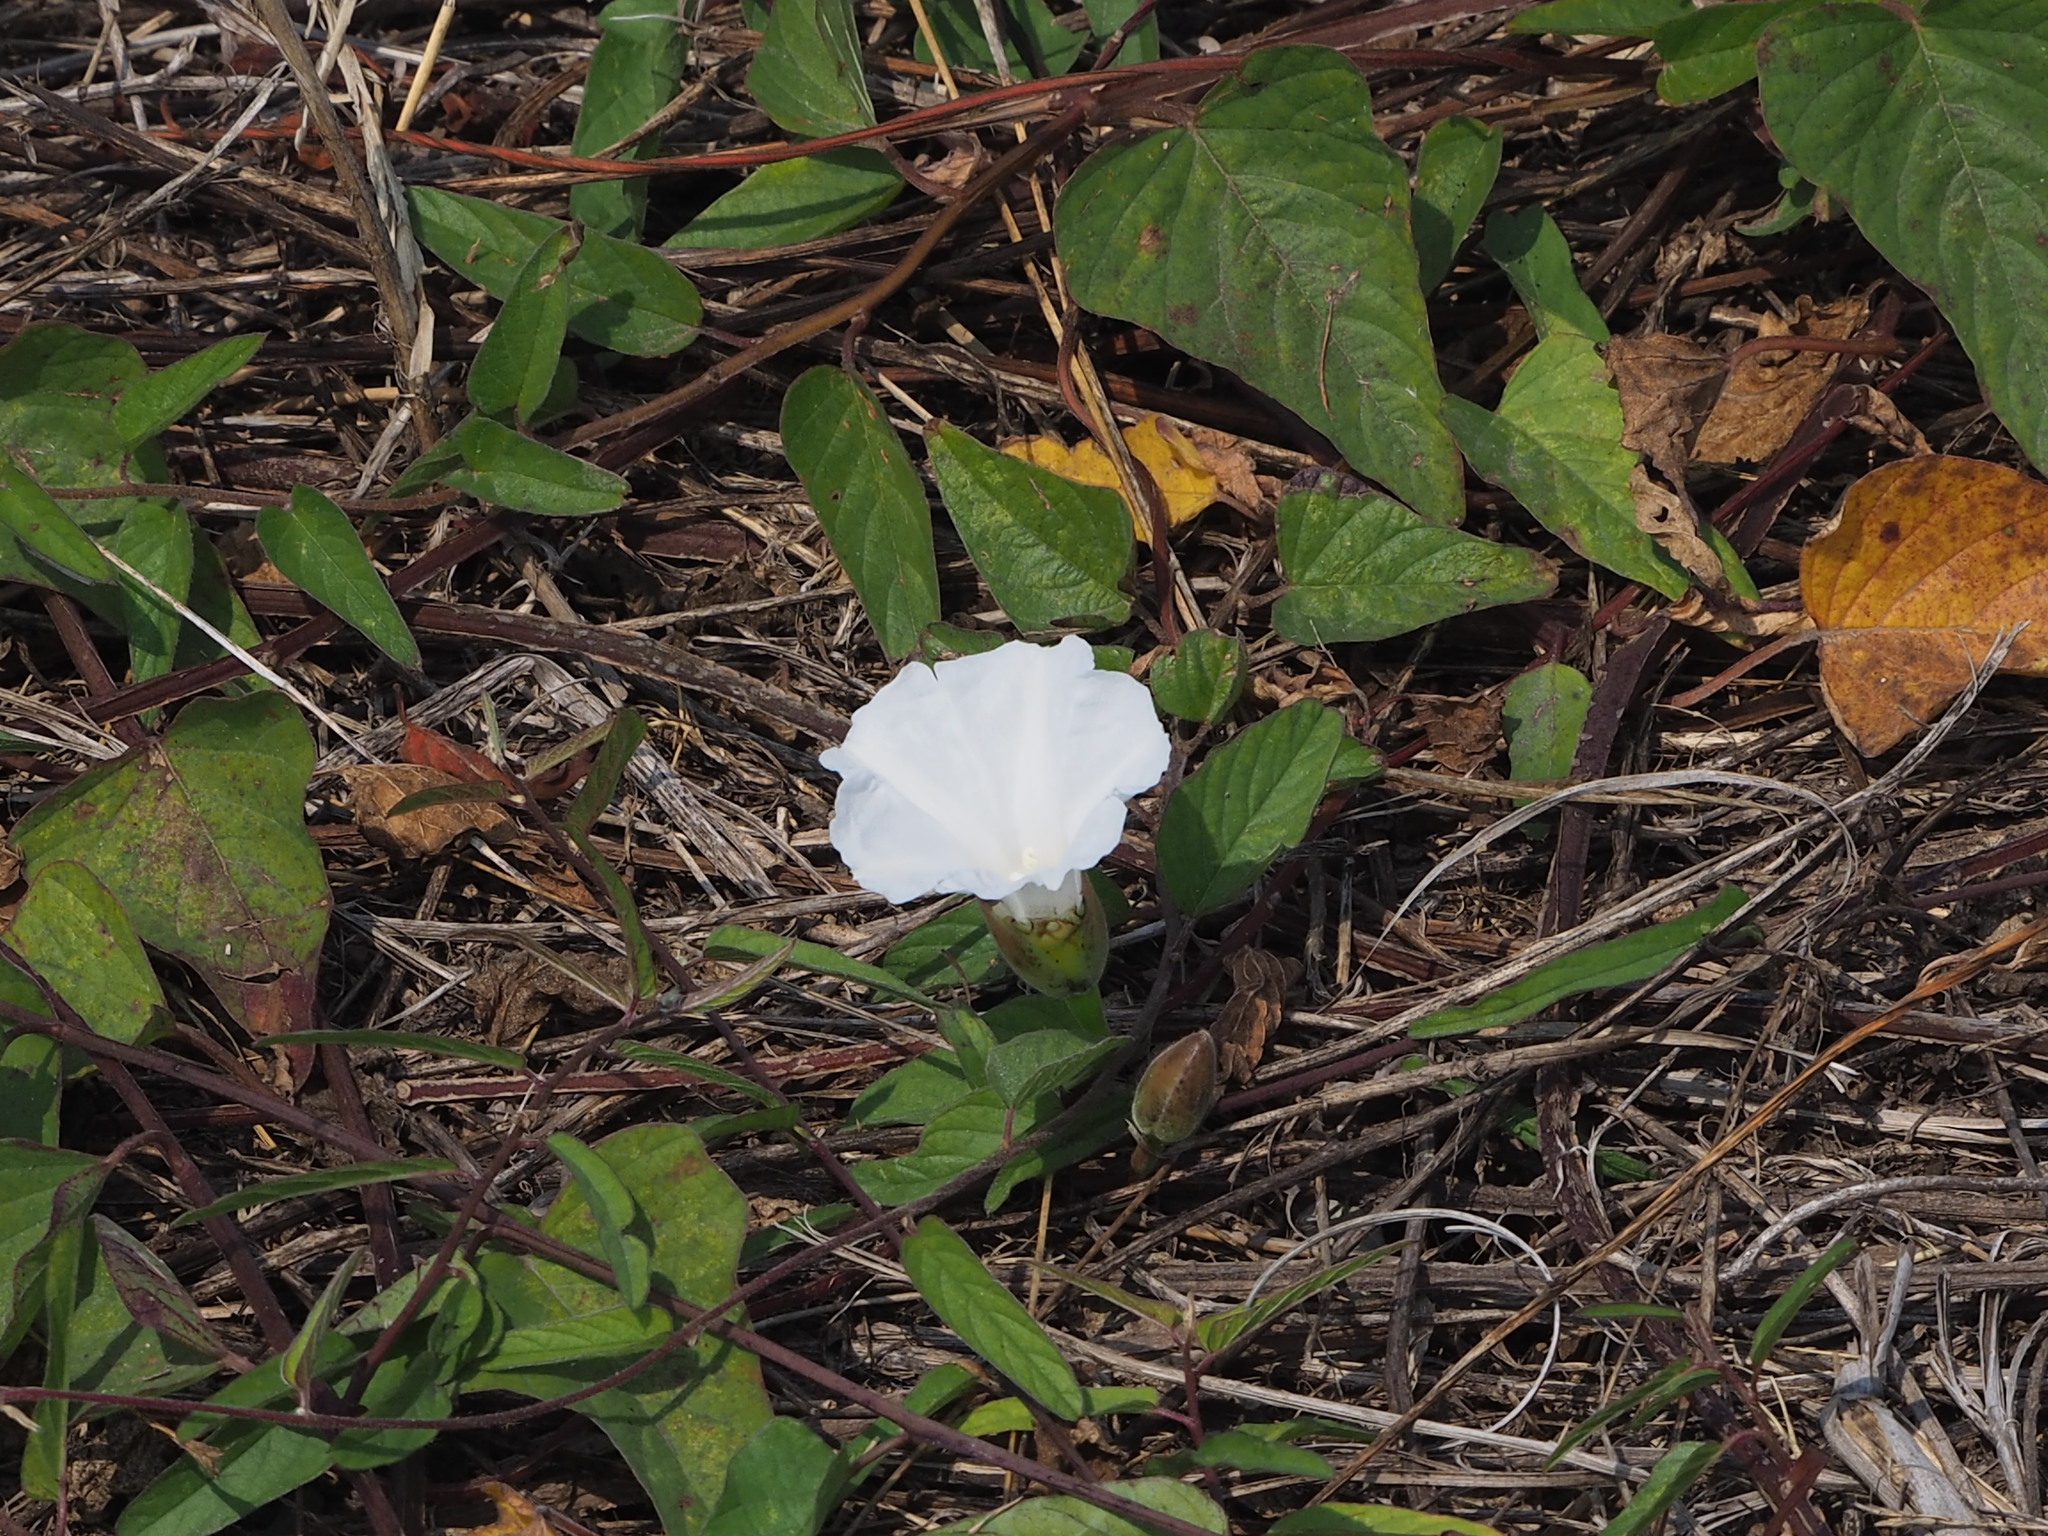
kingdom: Plantae
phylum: Tracheophyta
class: Magnoliopsida
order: Solanales
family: Convolvulaceae
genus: Operculina
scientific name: Operculina turpethum
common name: Transparent wood-rose
